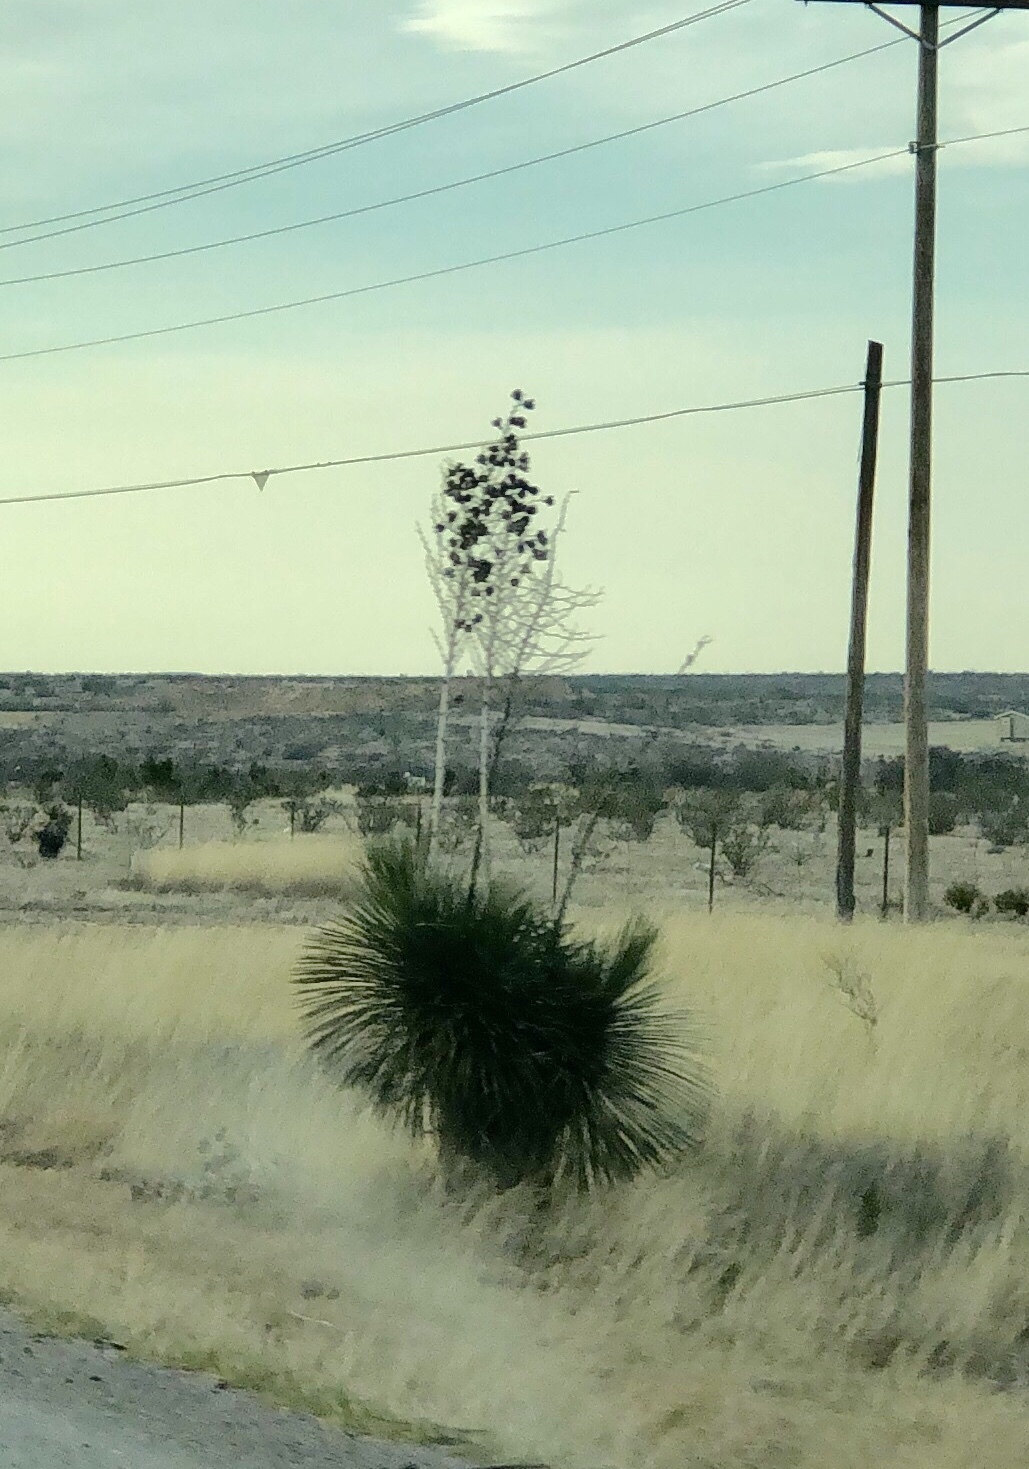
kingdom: Plantae
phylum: Tracheophyta
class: Liliopsida
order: Asparagales
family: Asparagaceae
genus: Yucca
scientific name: Yucca elata
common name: Palmella
